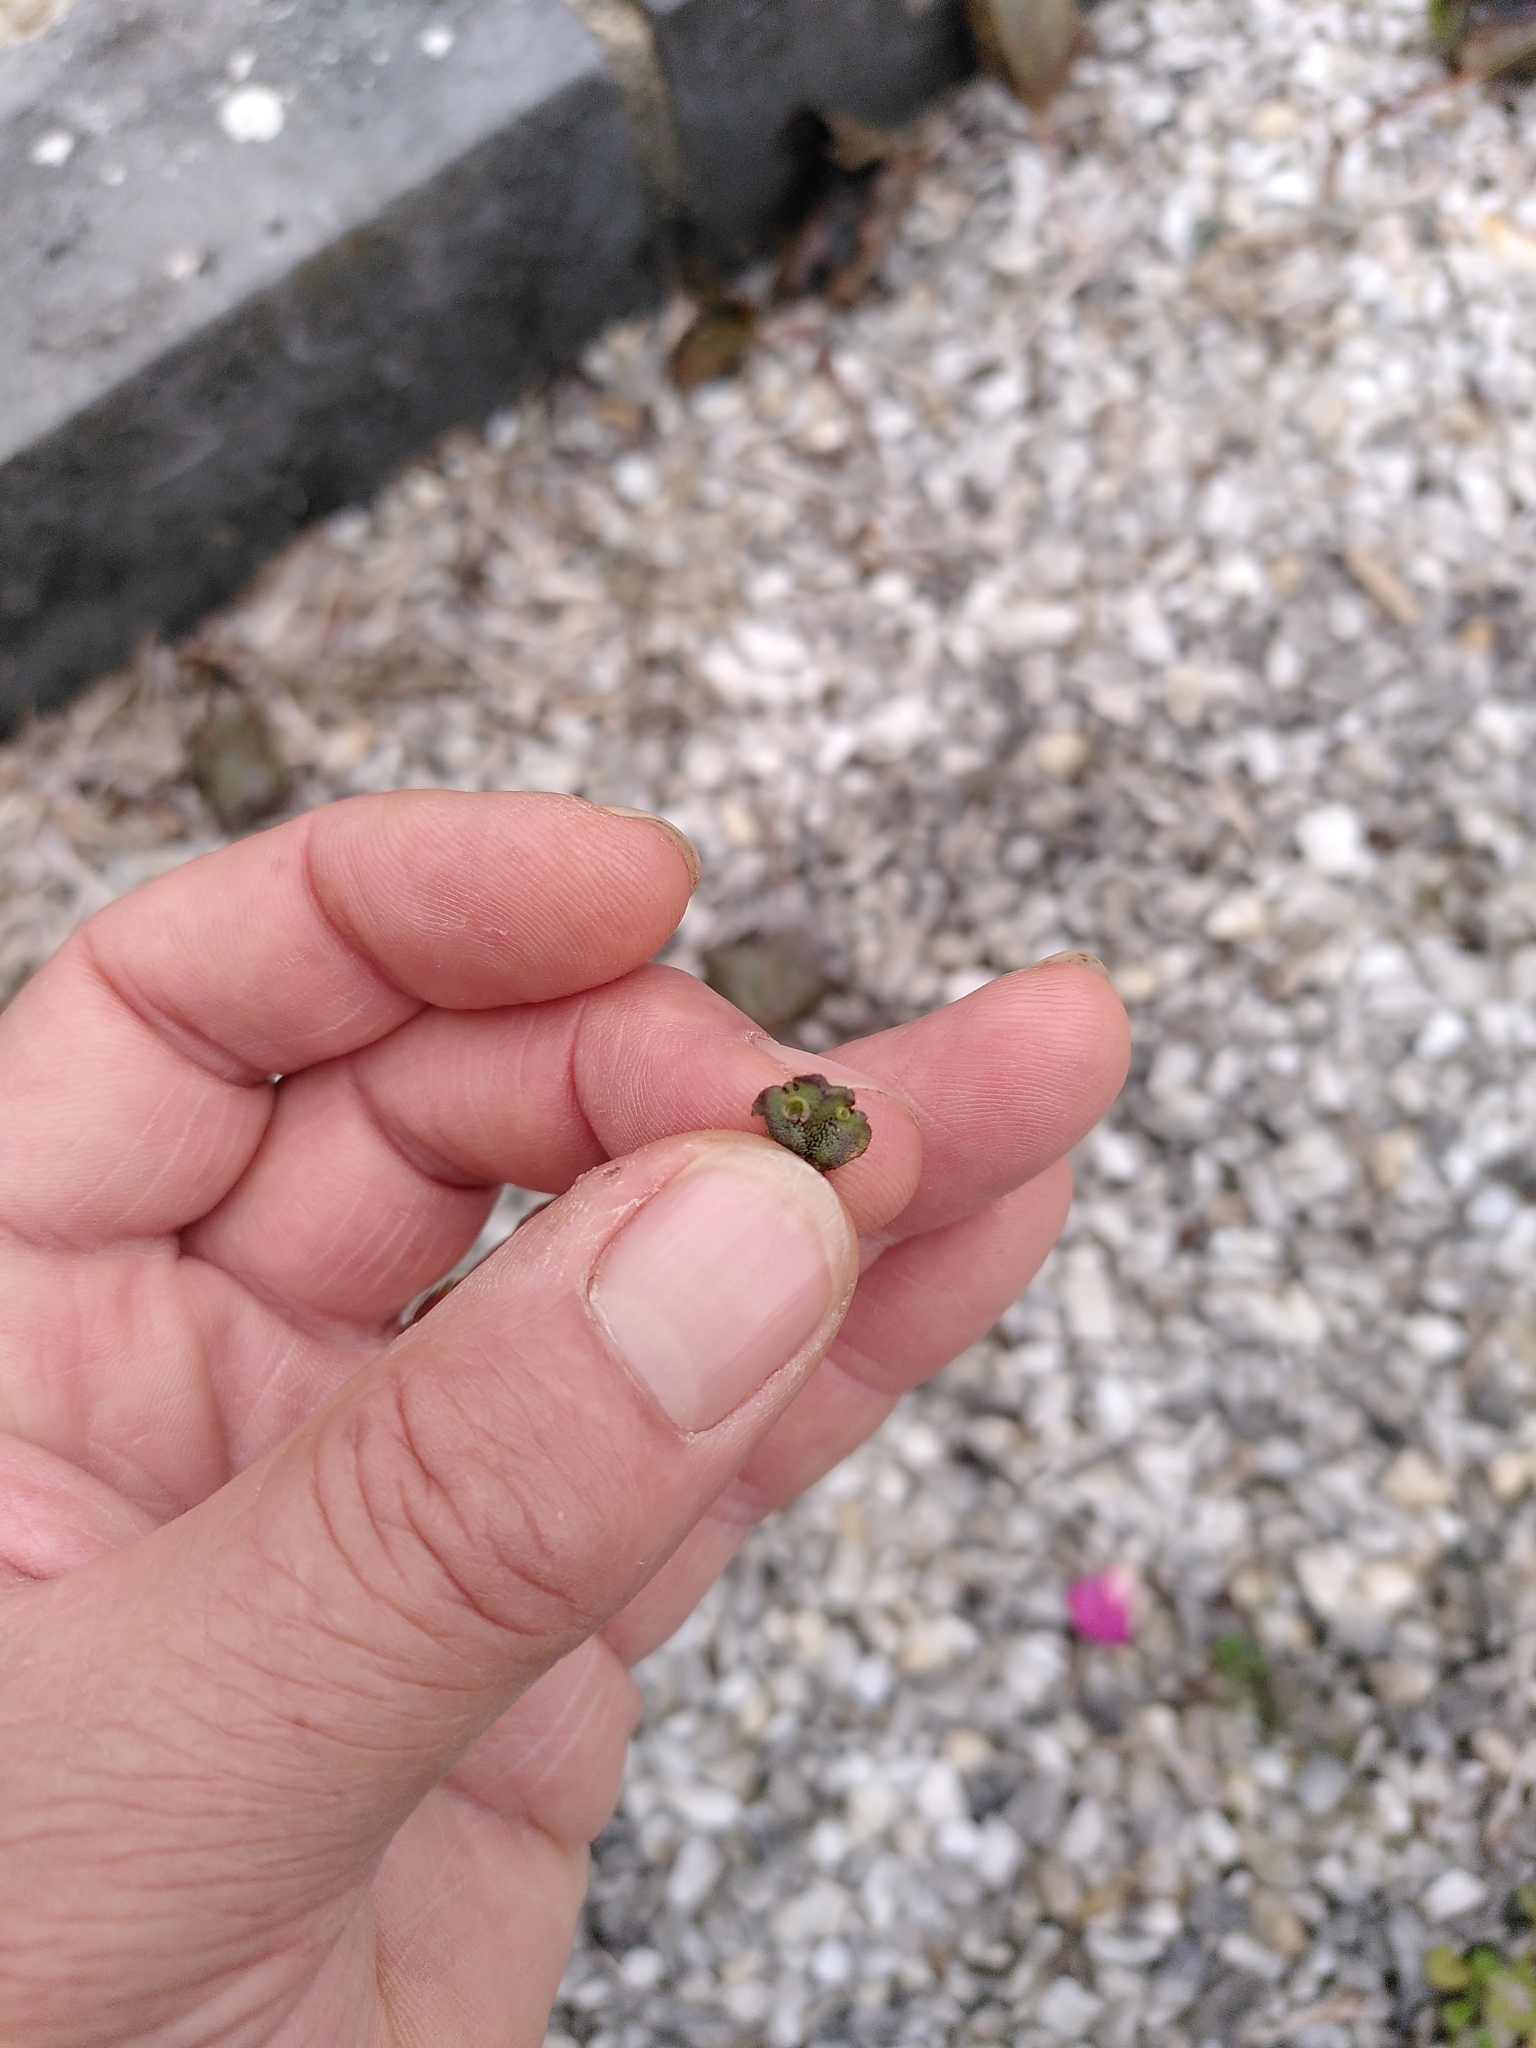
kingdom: Plantae
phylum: Marchantiophyta
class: Marchantiopsida
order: Marchantiales
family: Marchantiaceae
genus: Marchantia
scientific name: Marchantia polymorpha
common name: Common liverwort
